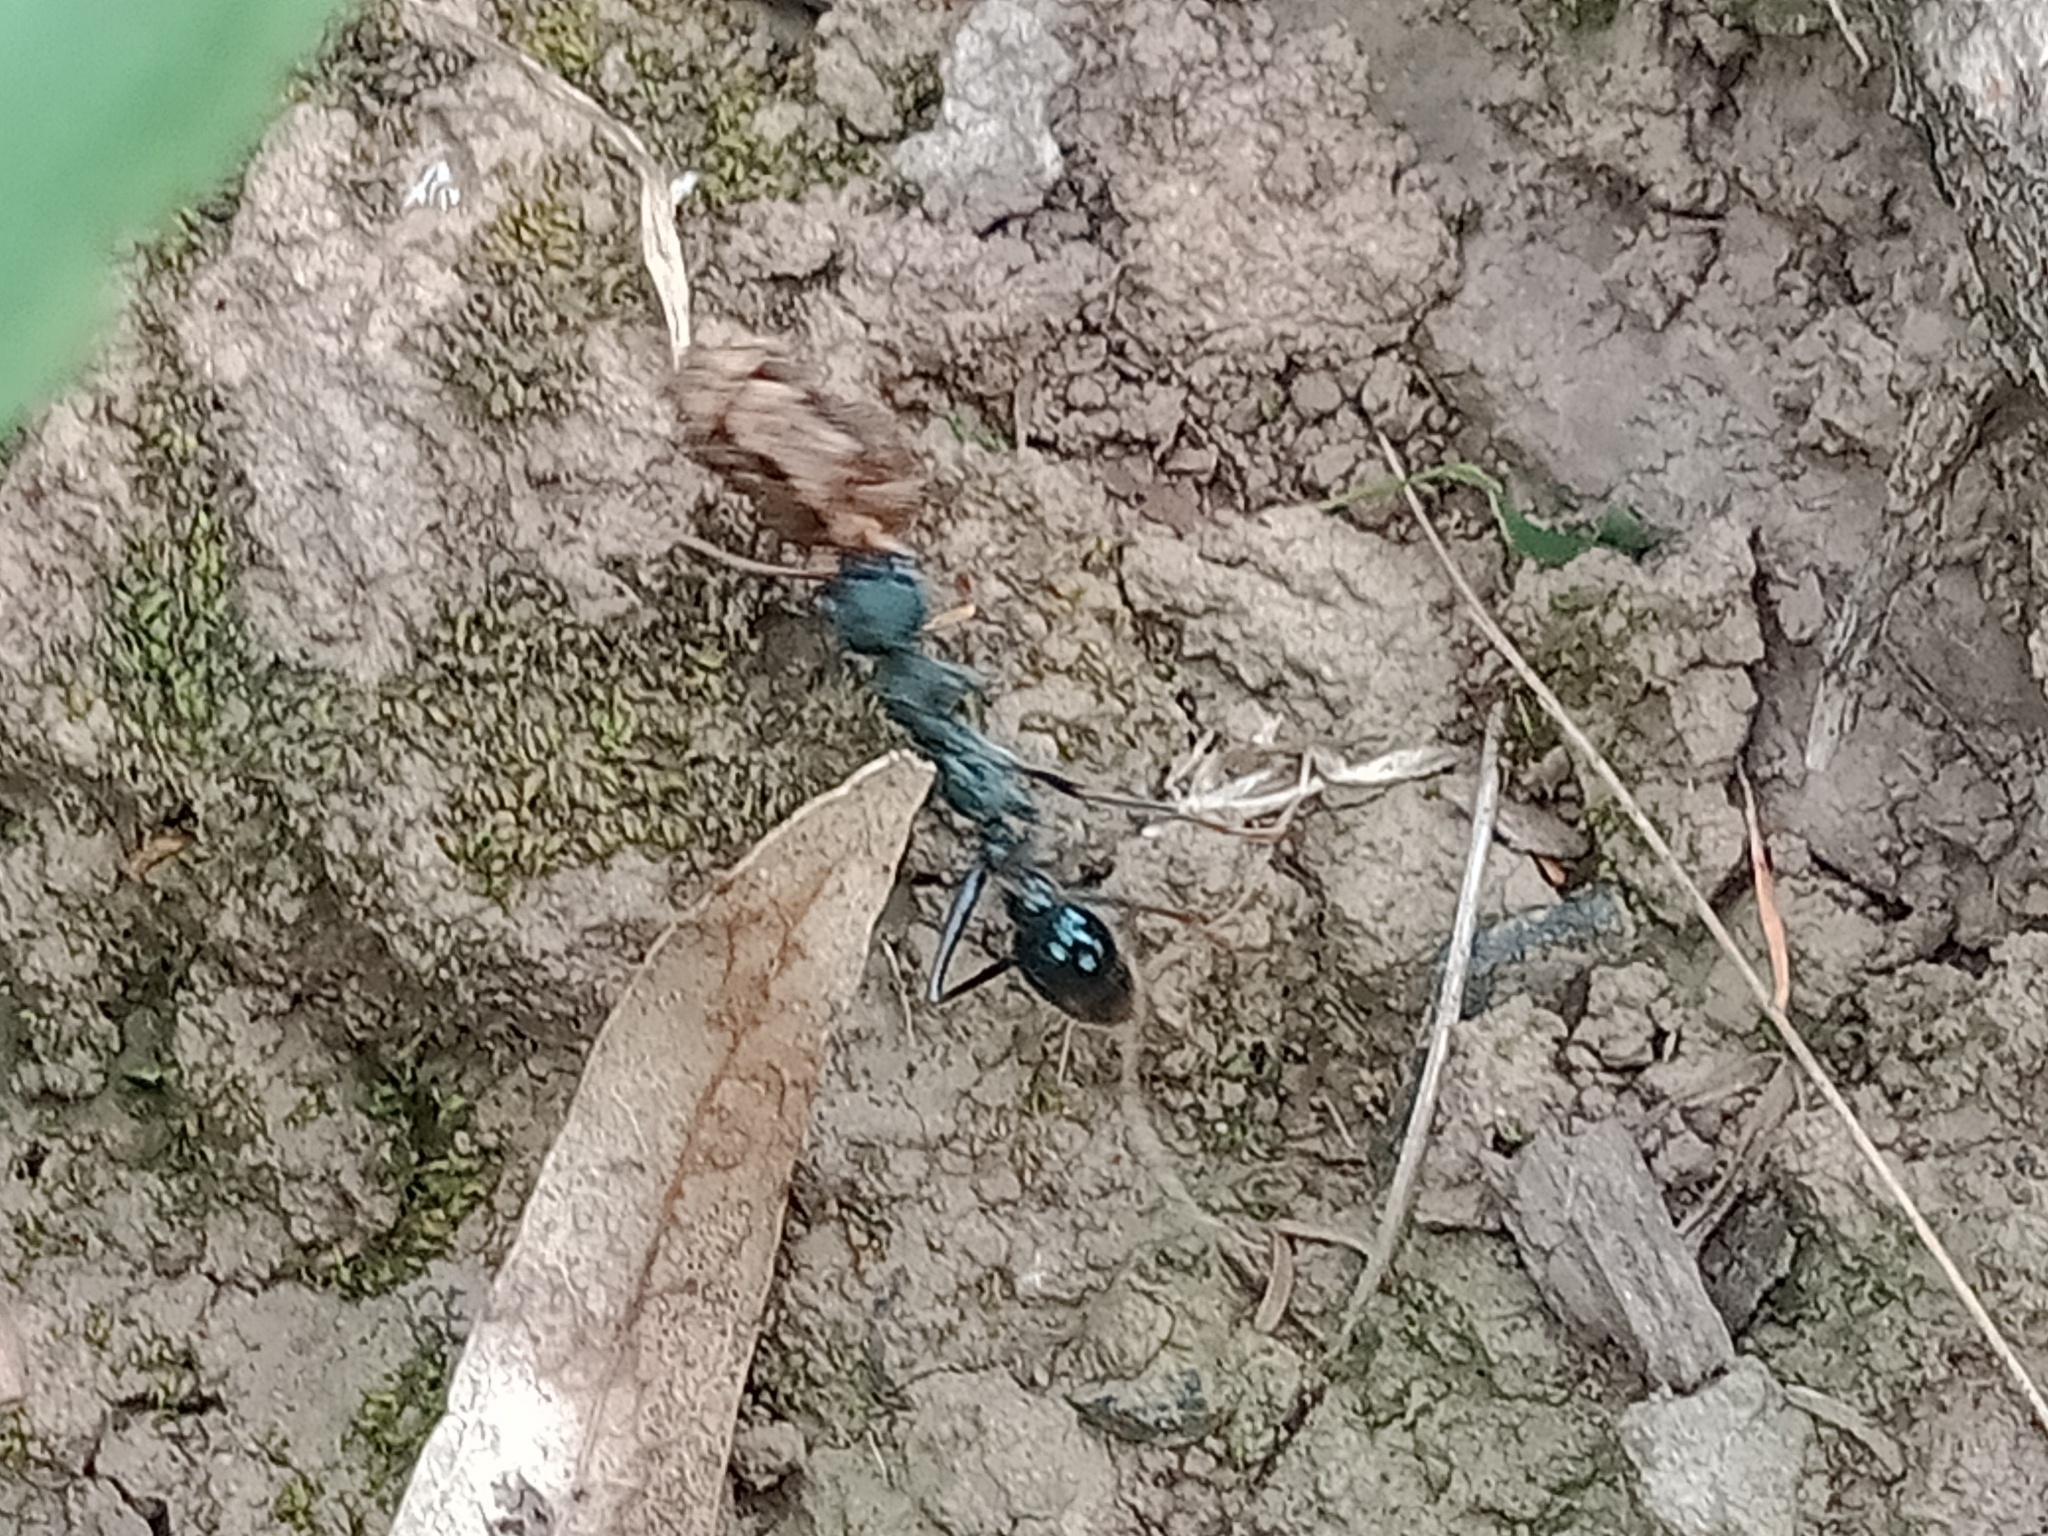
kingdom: Animalia
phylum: Arthropoda
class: Insecta
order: Hymenoptera
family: Formicidae
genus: Myrmecia
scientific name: Myrmecia tarsata
